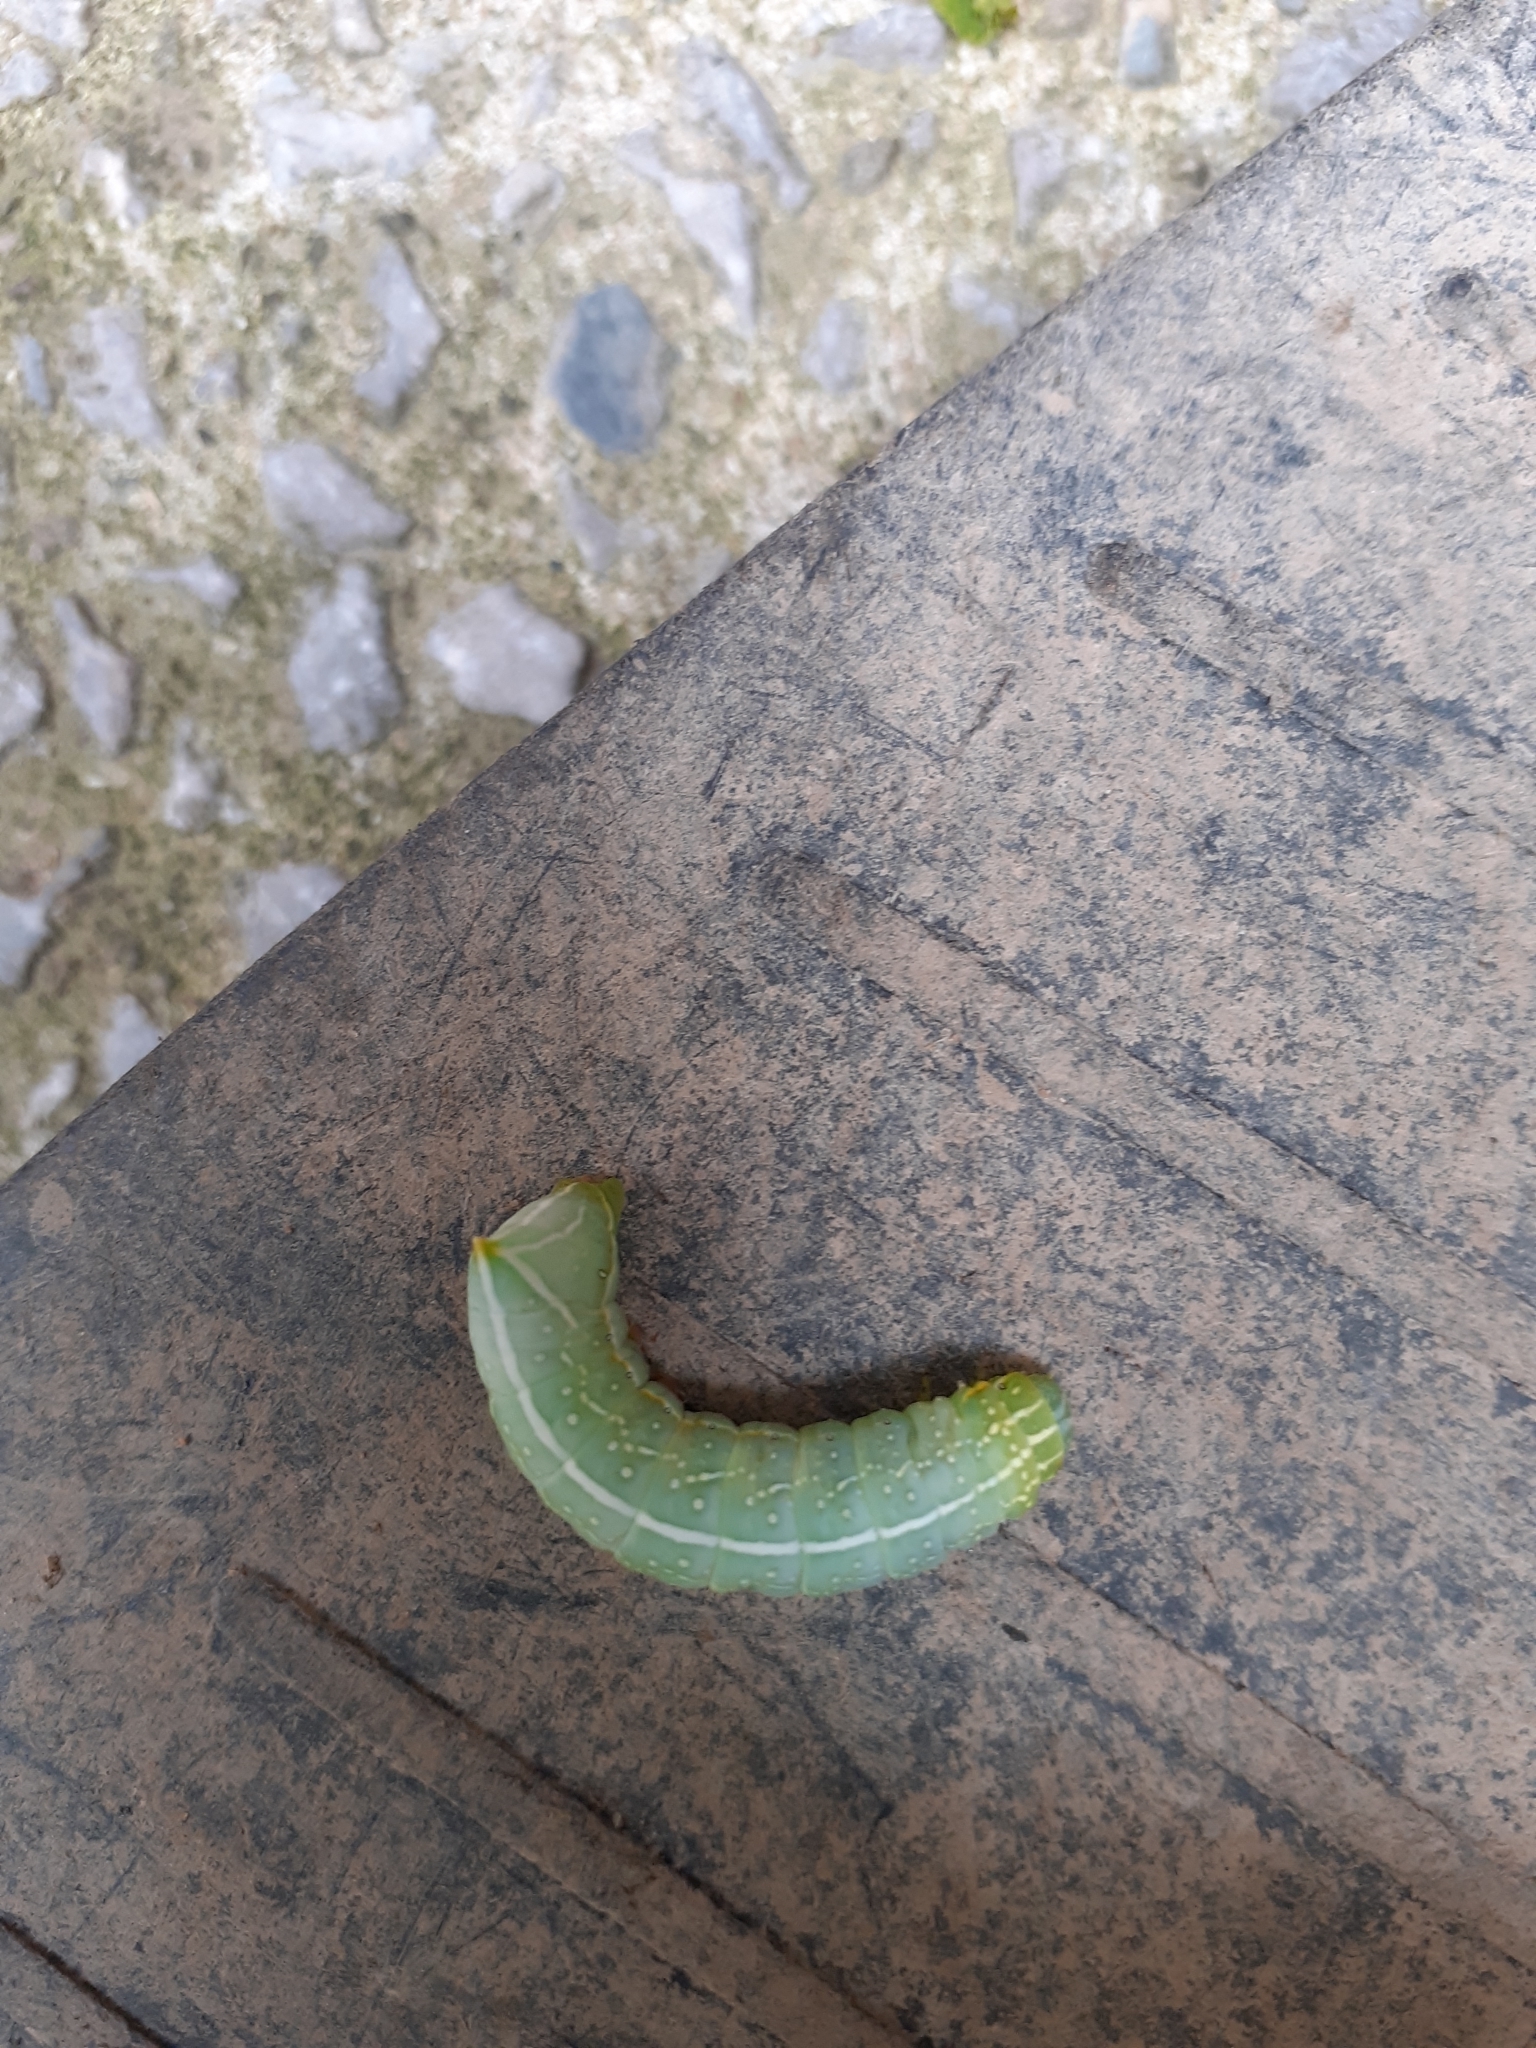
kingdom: Animalia
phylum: Arthropoda
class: Insecta
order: Lepidoptera
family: Noctuidae
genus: Amphipyra
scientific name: Amphipyra pyramidea
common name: Copper underwing
